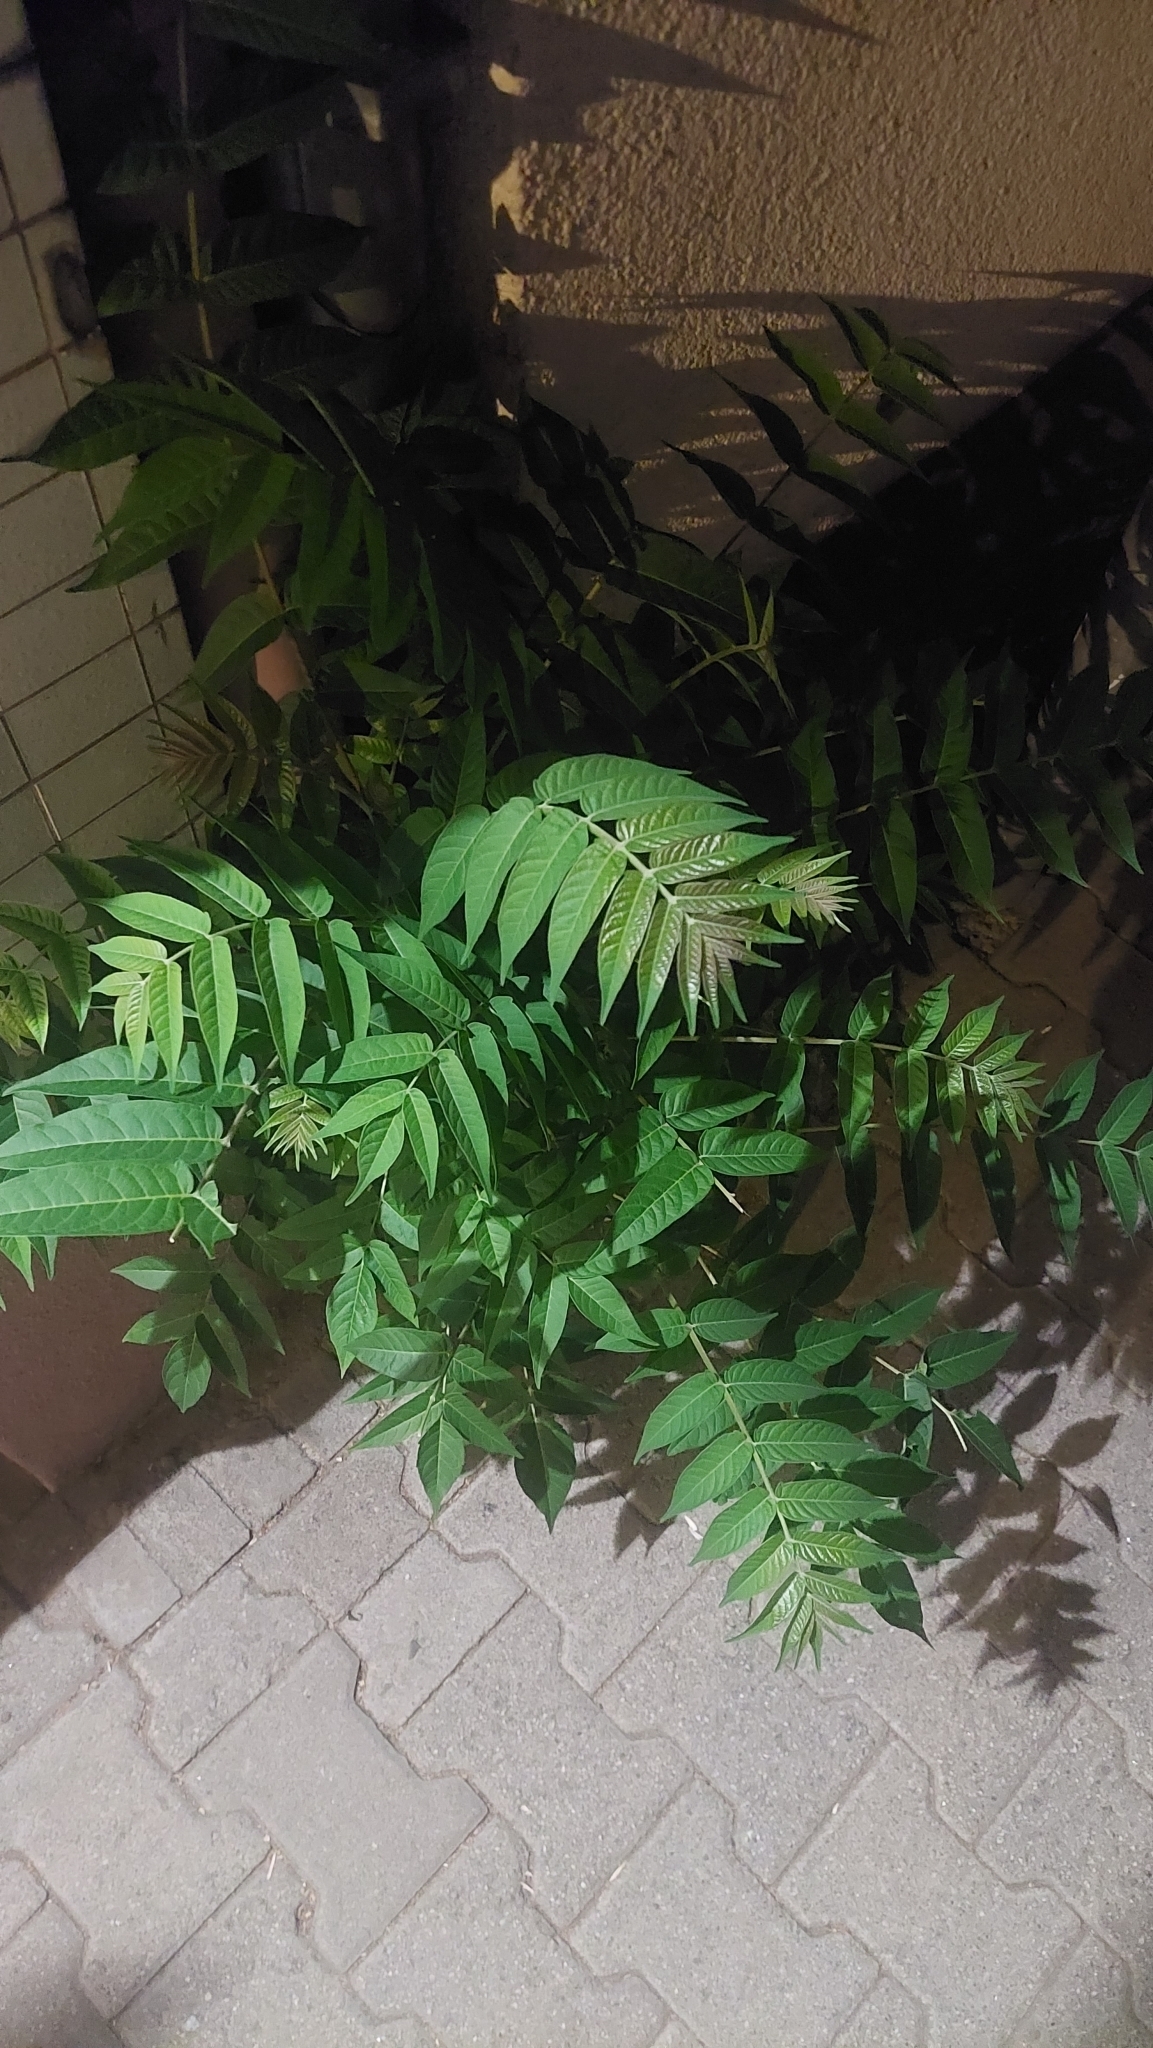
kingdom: Plantae
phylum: Tracheophyta
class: Magnoliopsida
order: Sapindales
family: Simaroubaceae
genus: Ailanthus
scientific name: Ailanthus altissima
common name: Tree-of-heaven
